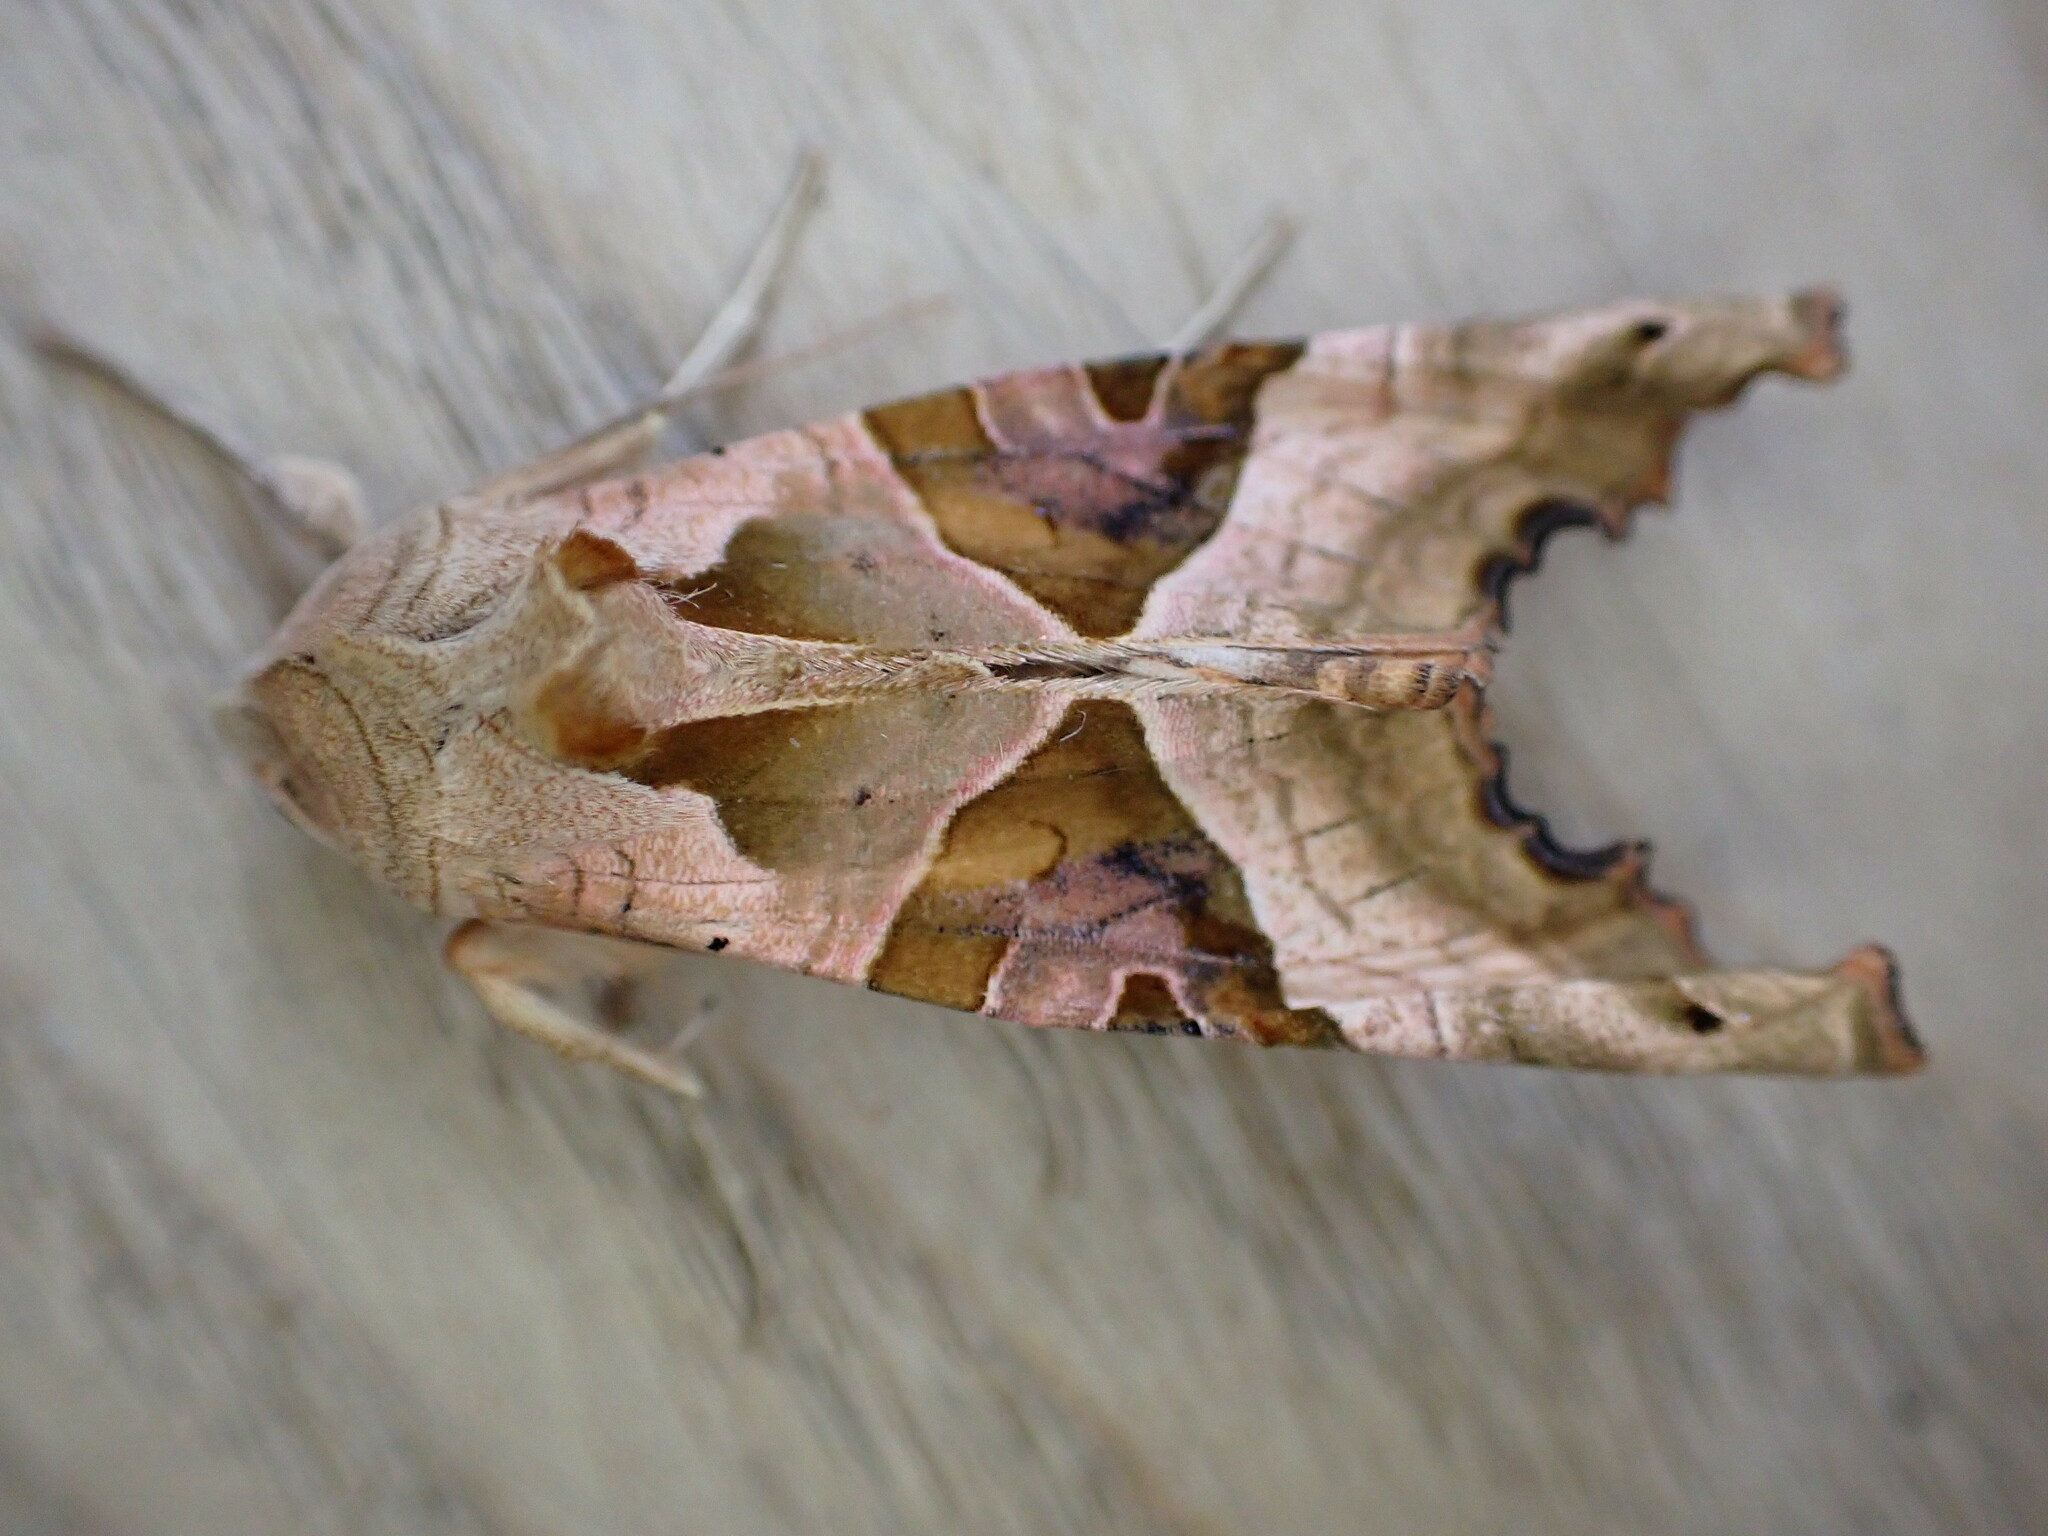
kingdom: Animalia
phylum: Arthropoda
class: Insecta
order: Lepidoptera
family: Noctuidae
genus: Phlogophora
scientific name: Phlogophora meticulosa
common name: Angle shades
